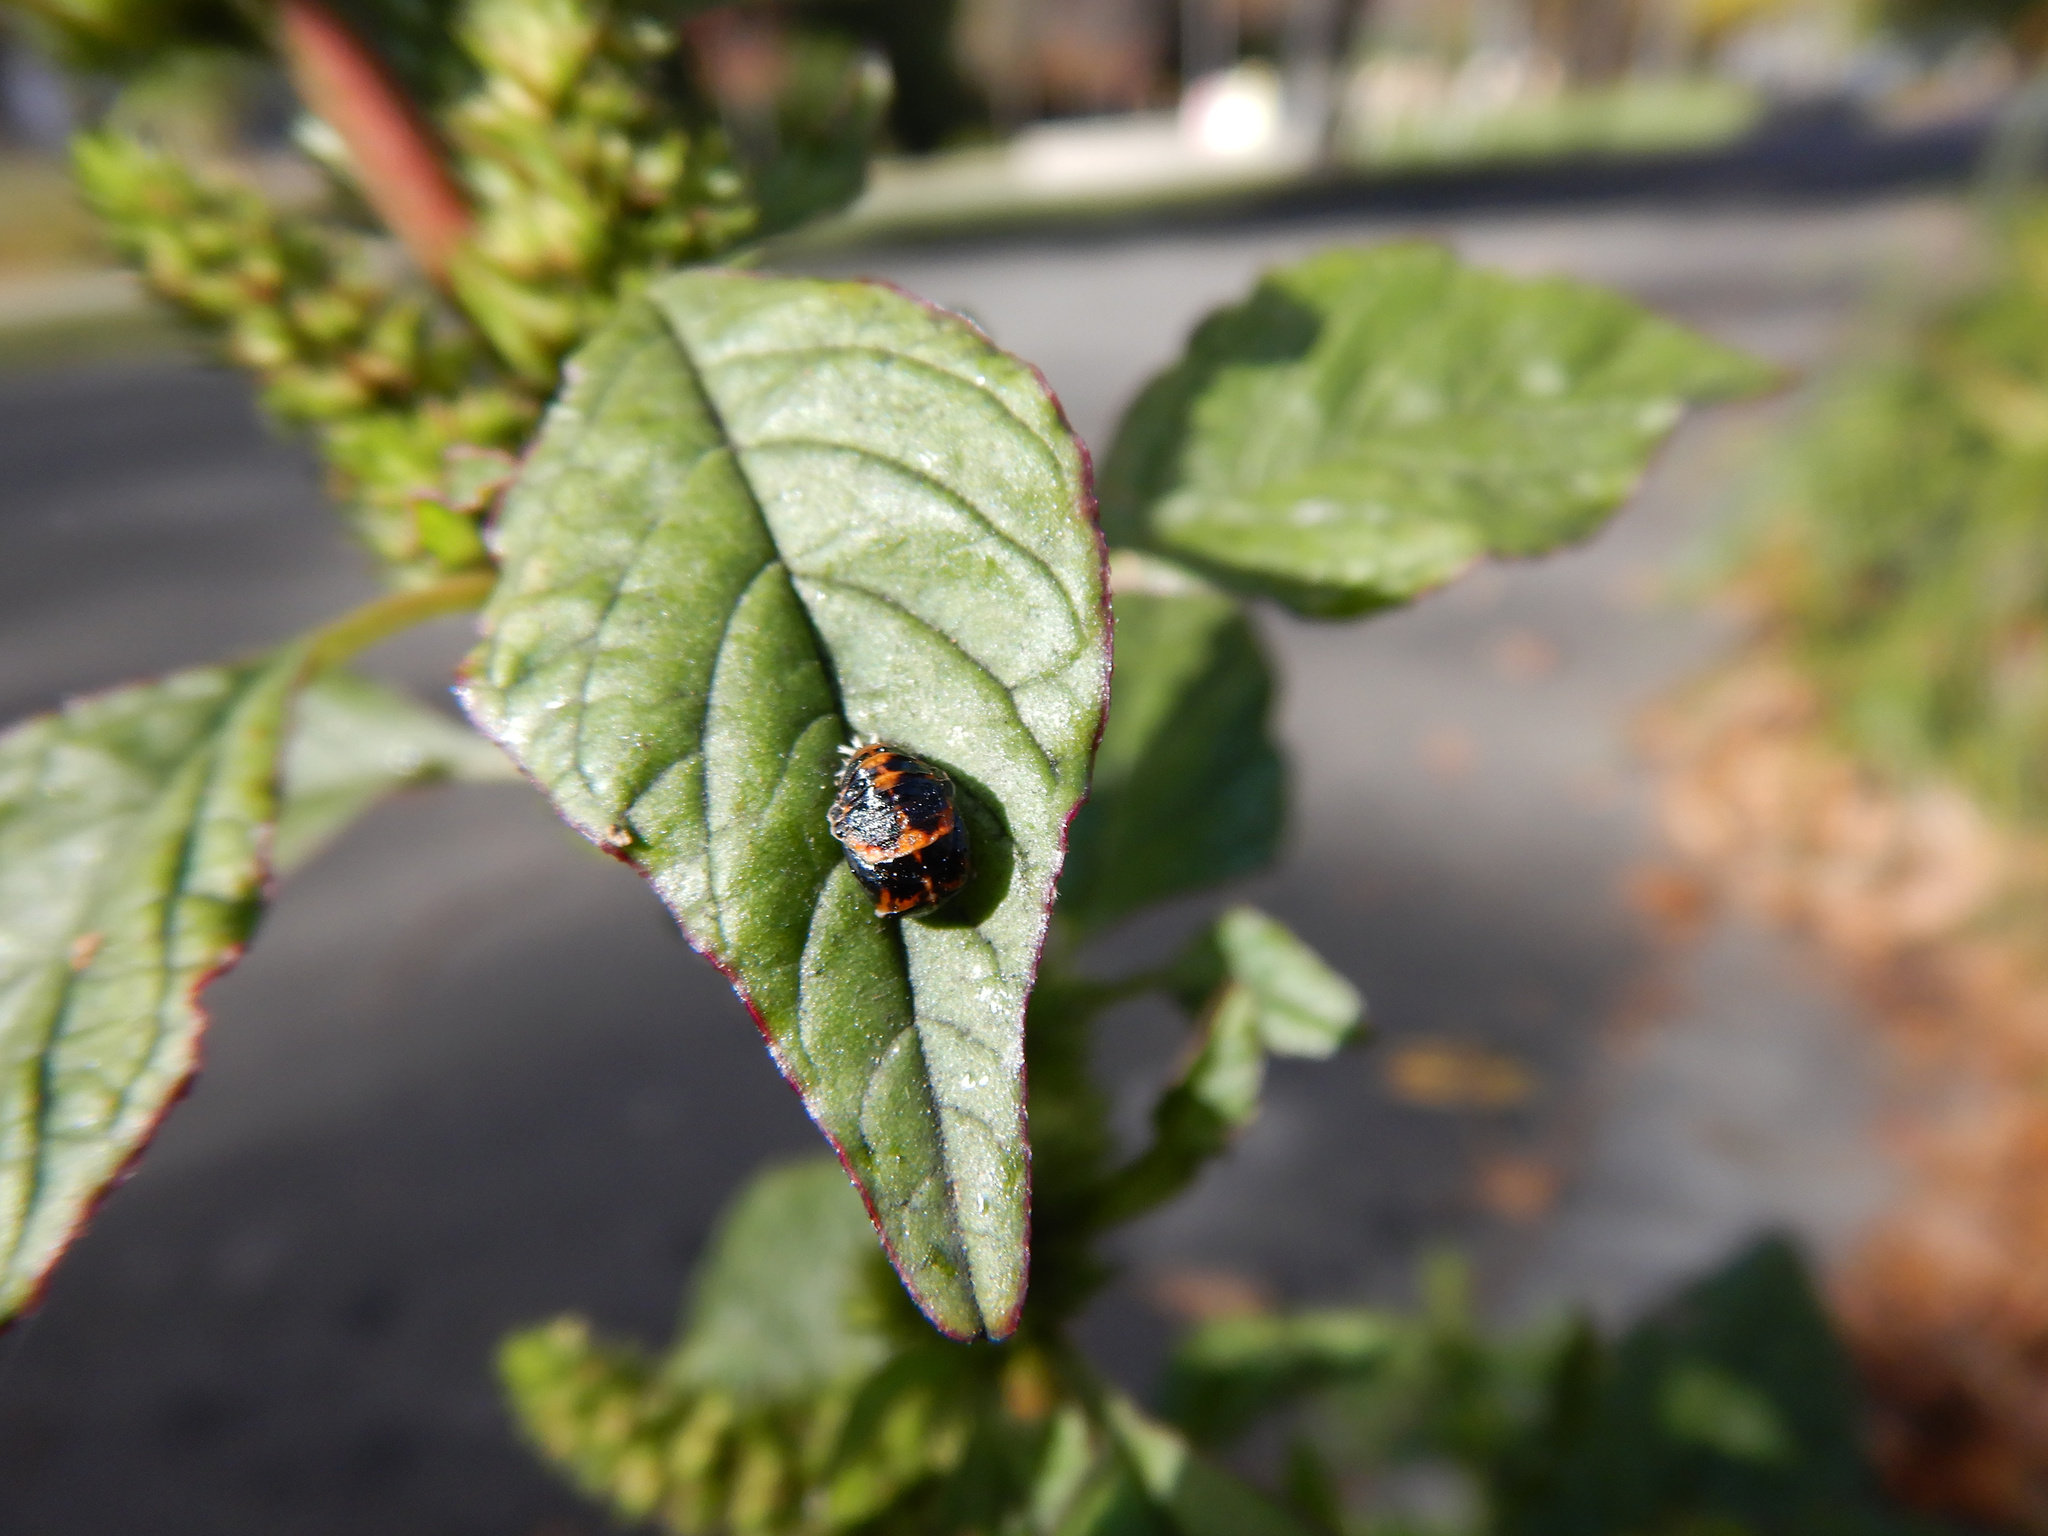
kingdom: Animalia
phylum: Arthropoda
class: Insecta
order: Coleoptera
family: Coccinellidae
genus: Harmonia
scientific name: Harmonia axyridis
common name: Harlequin ladybird
